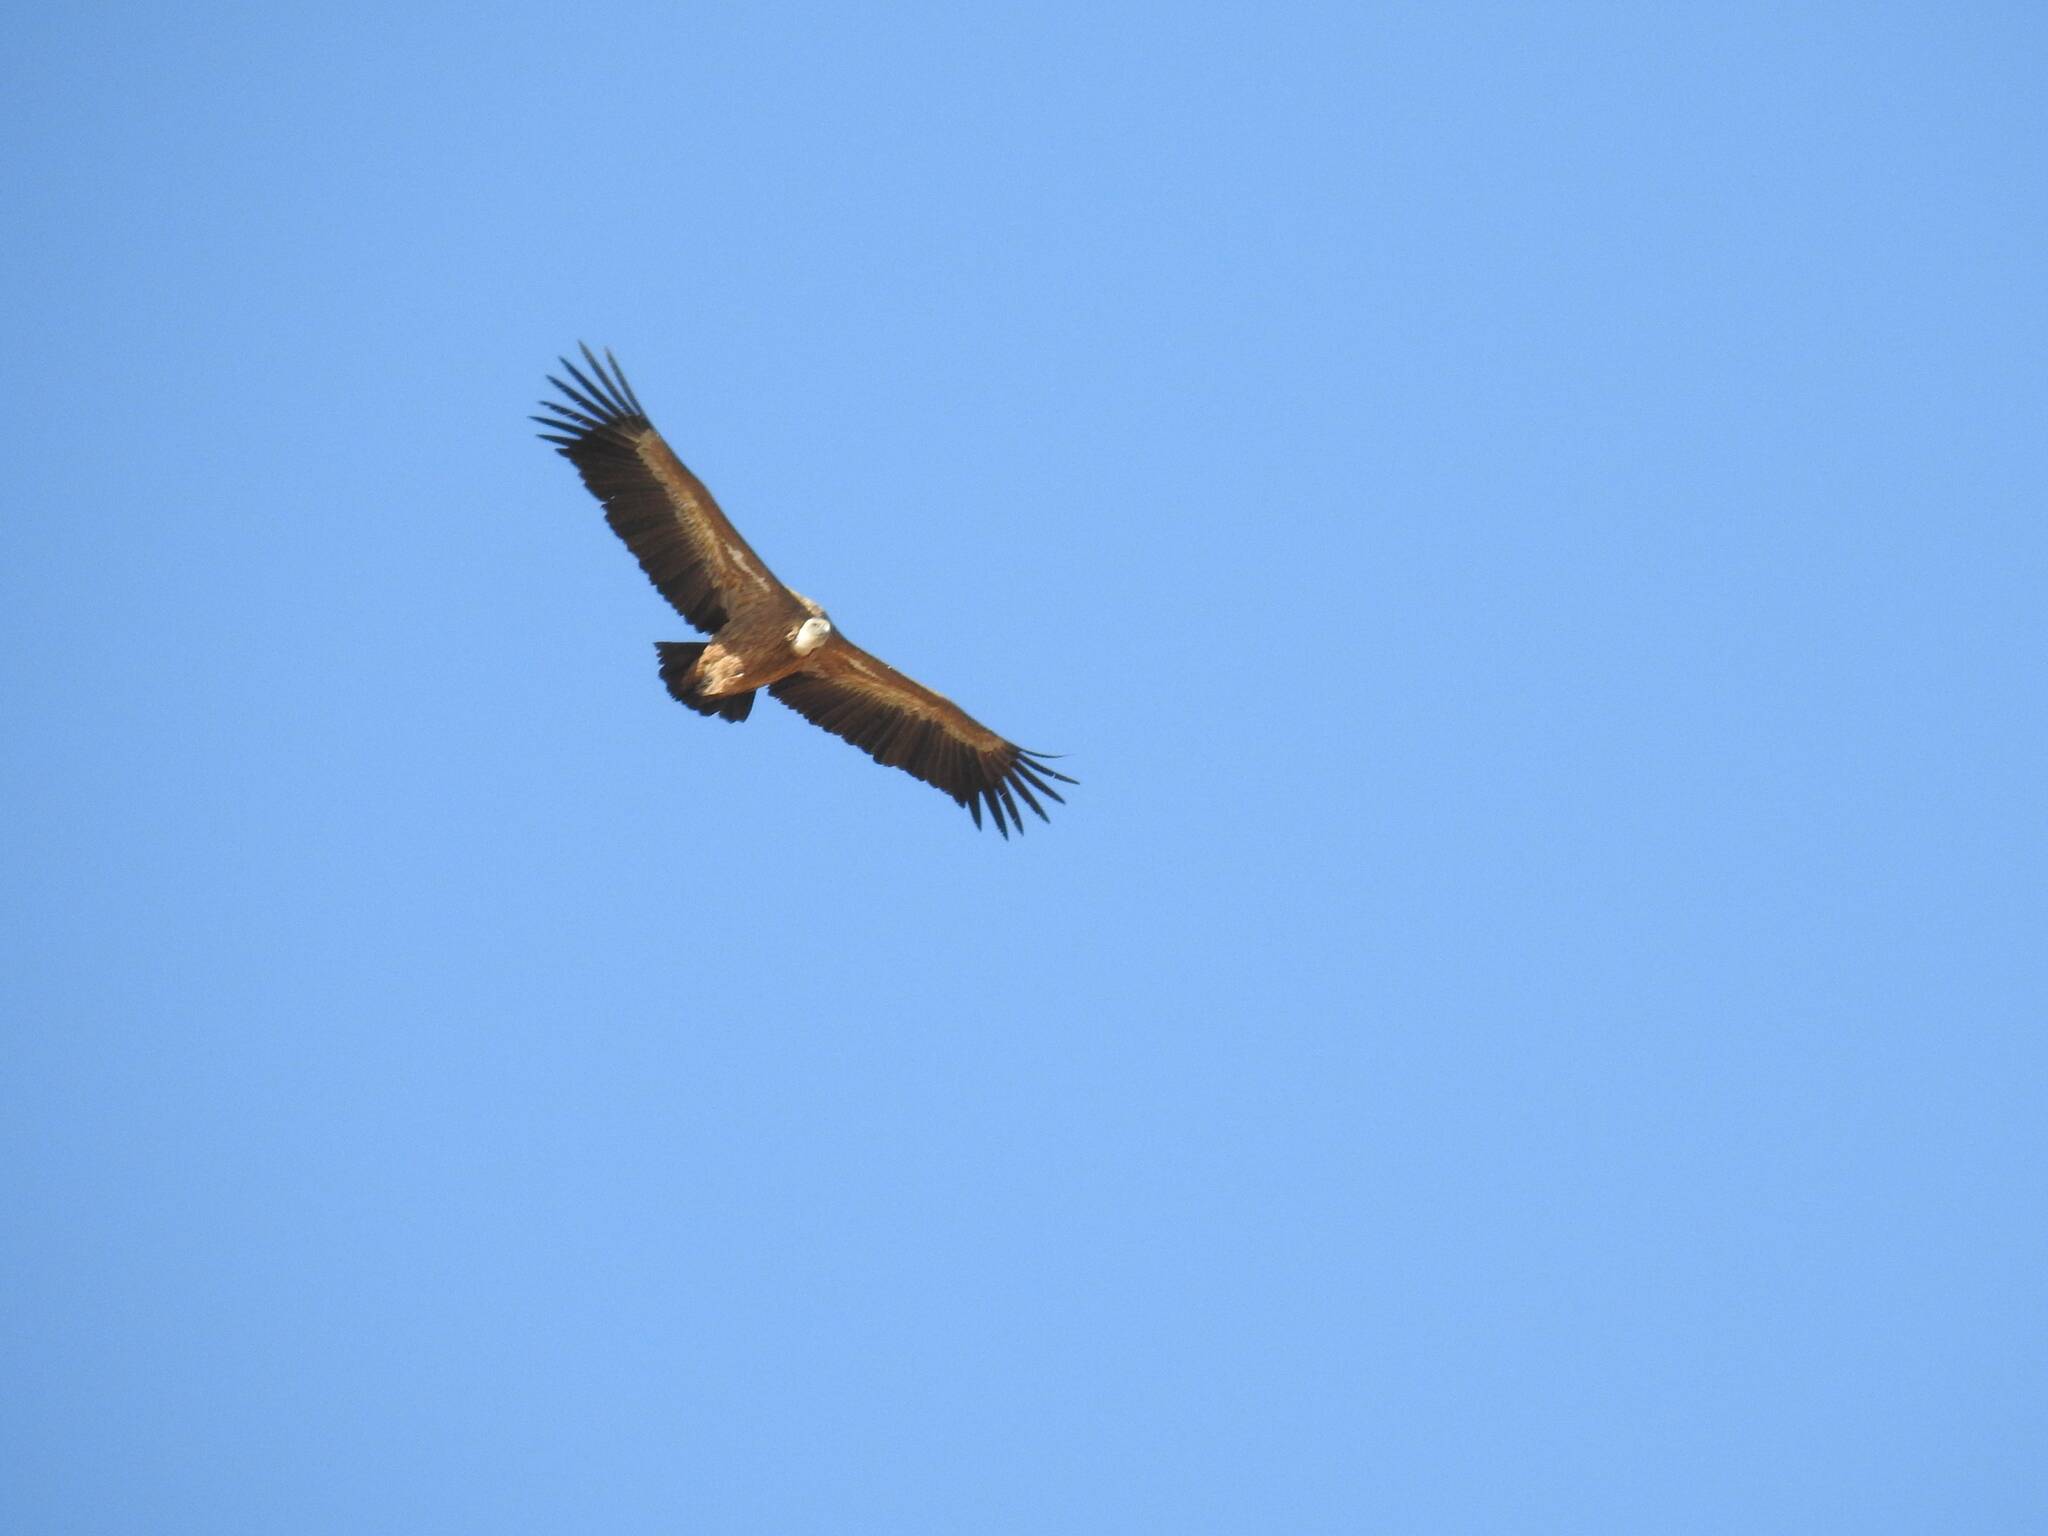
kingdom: Animalia
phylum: Chordata
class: Aves
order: Accipitriformes
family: Accipitridae
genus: Gyps
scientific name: Gyps fulvus
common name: Griffon vulture
